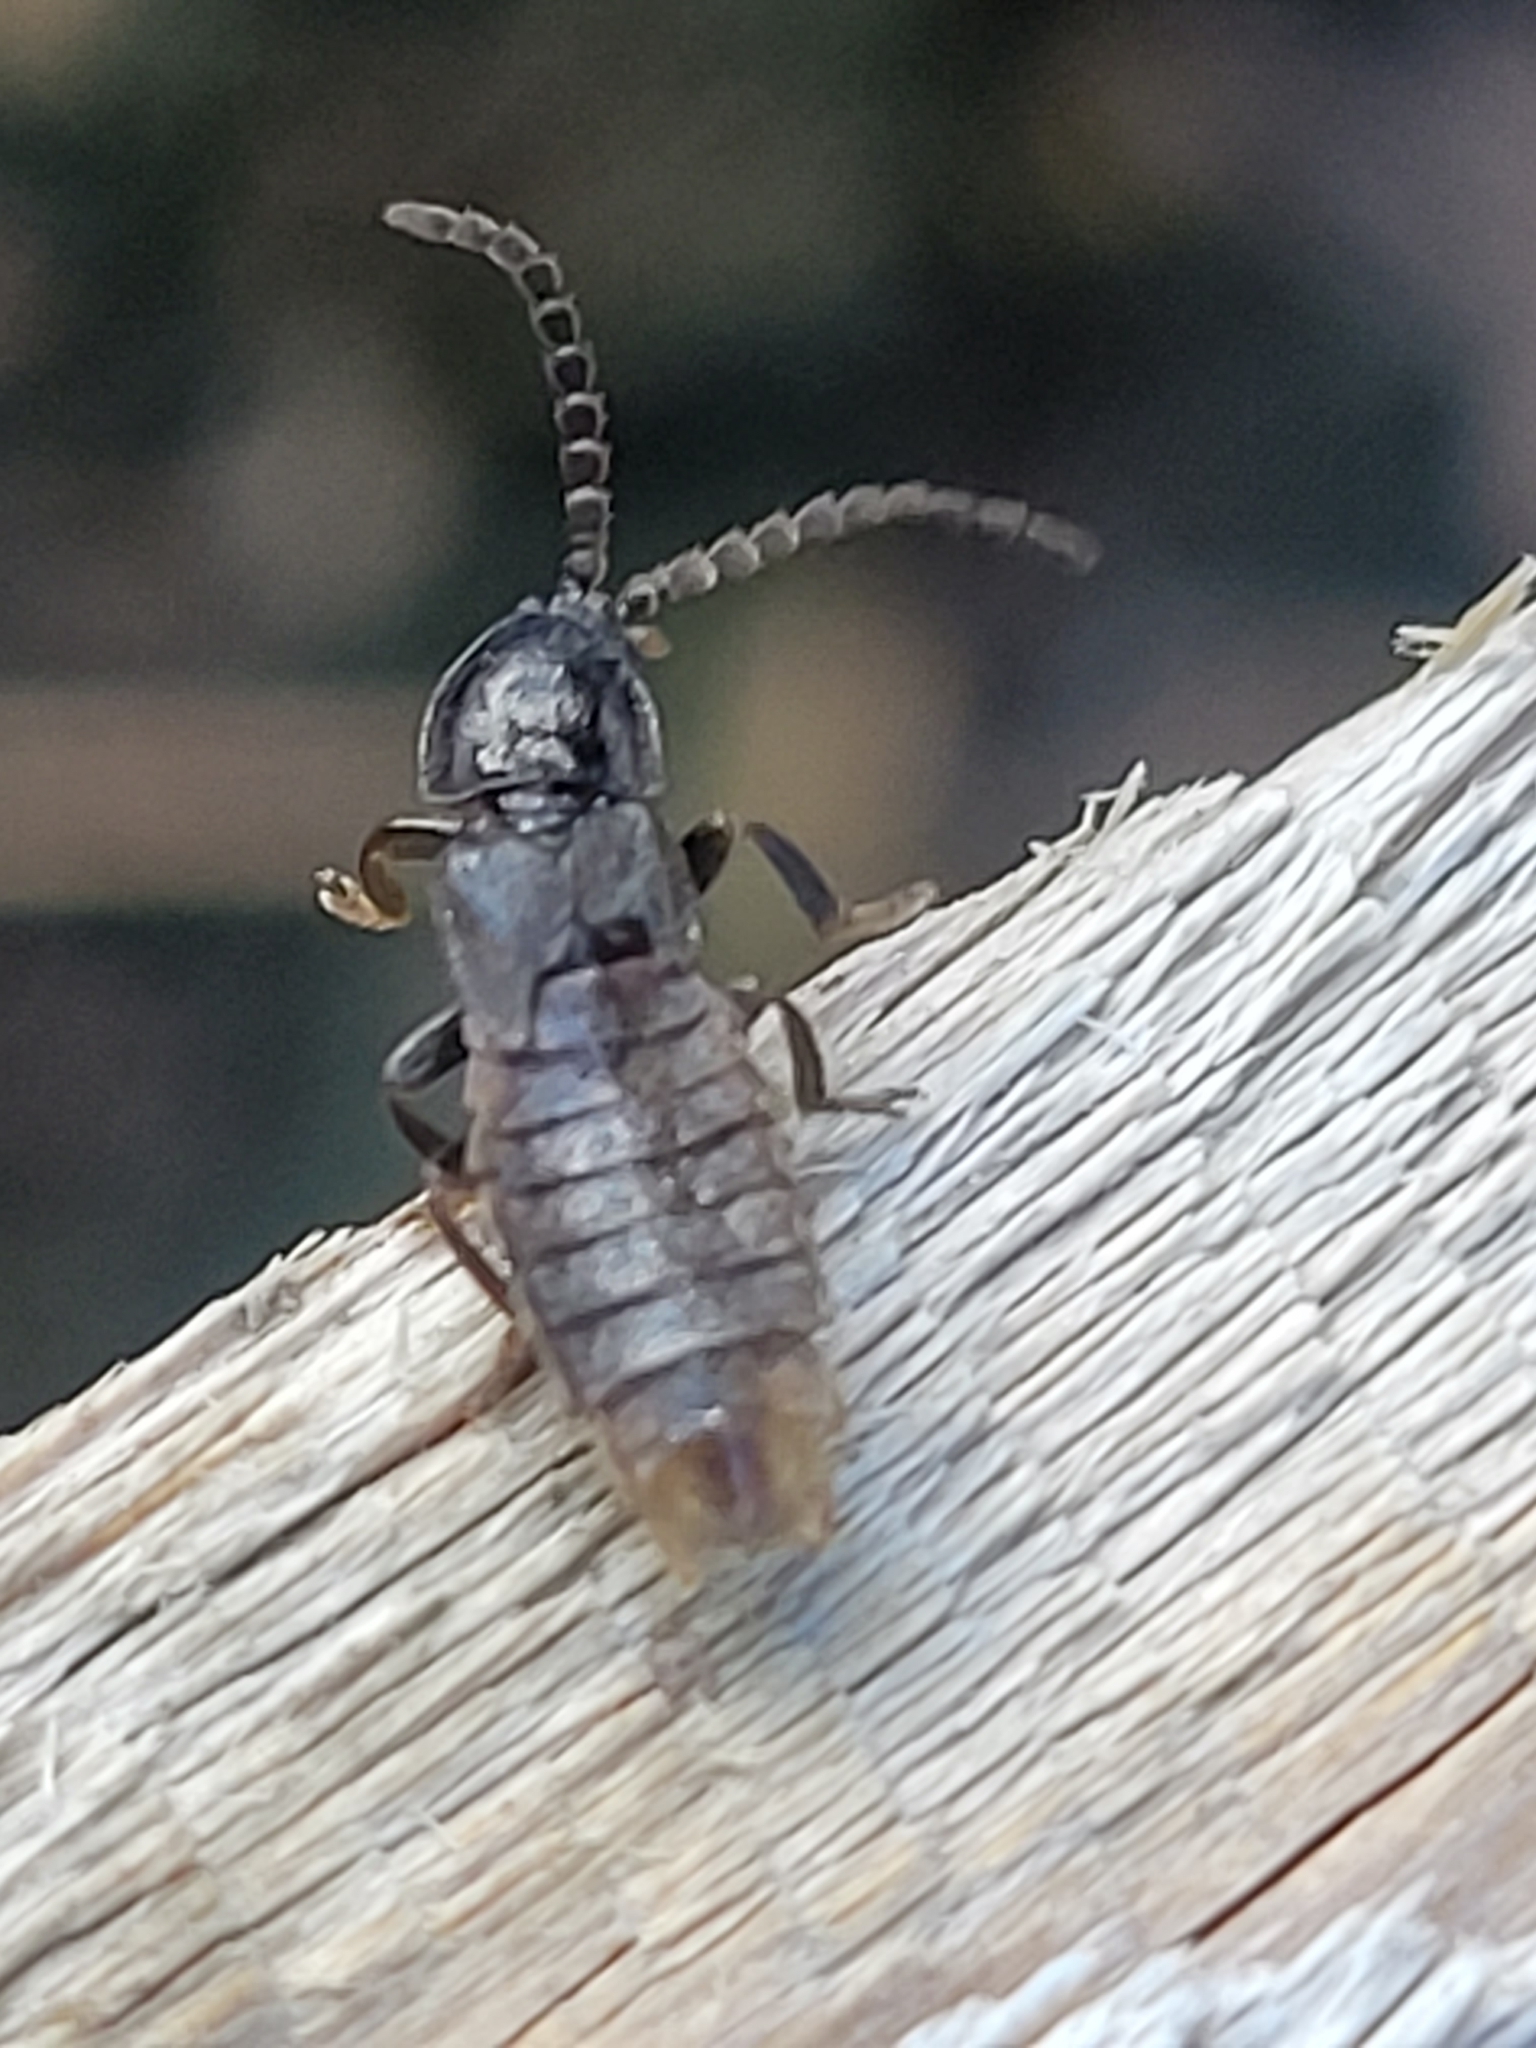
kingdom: Animalia
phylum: Arthropoda
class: Insecta
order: Coleoptera
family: Lampyridae
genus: Phosphaenus
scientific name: Phosphaenus hemipterus
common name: Short-winged firefly
